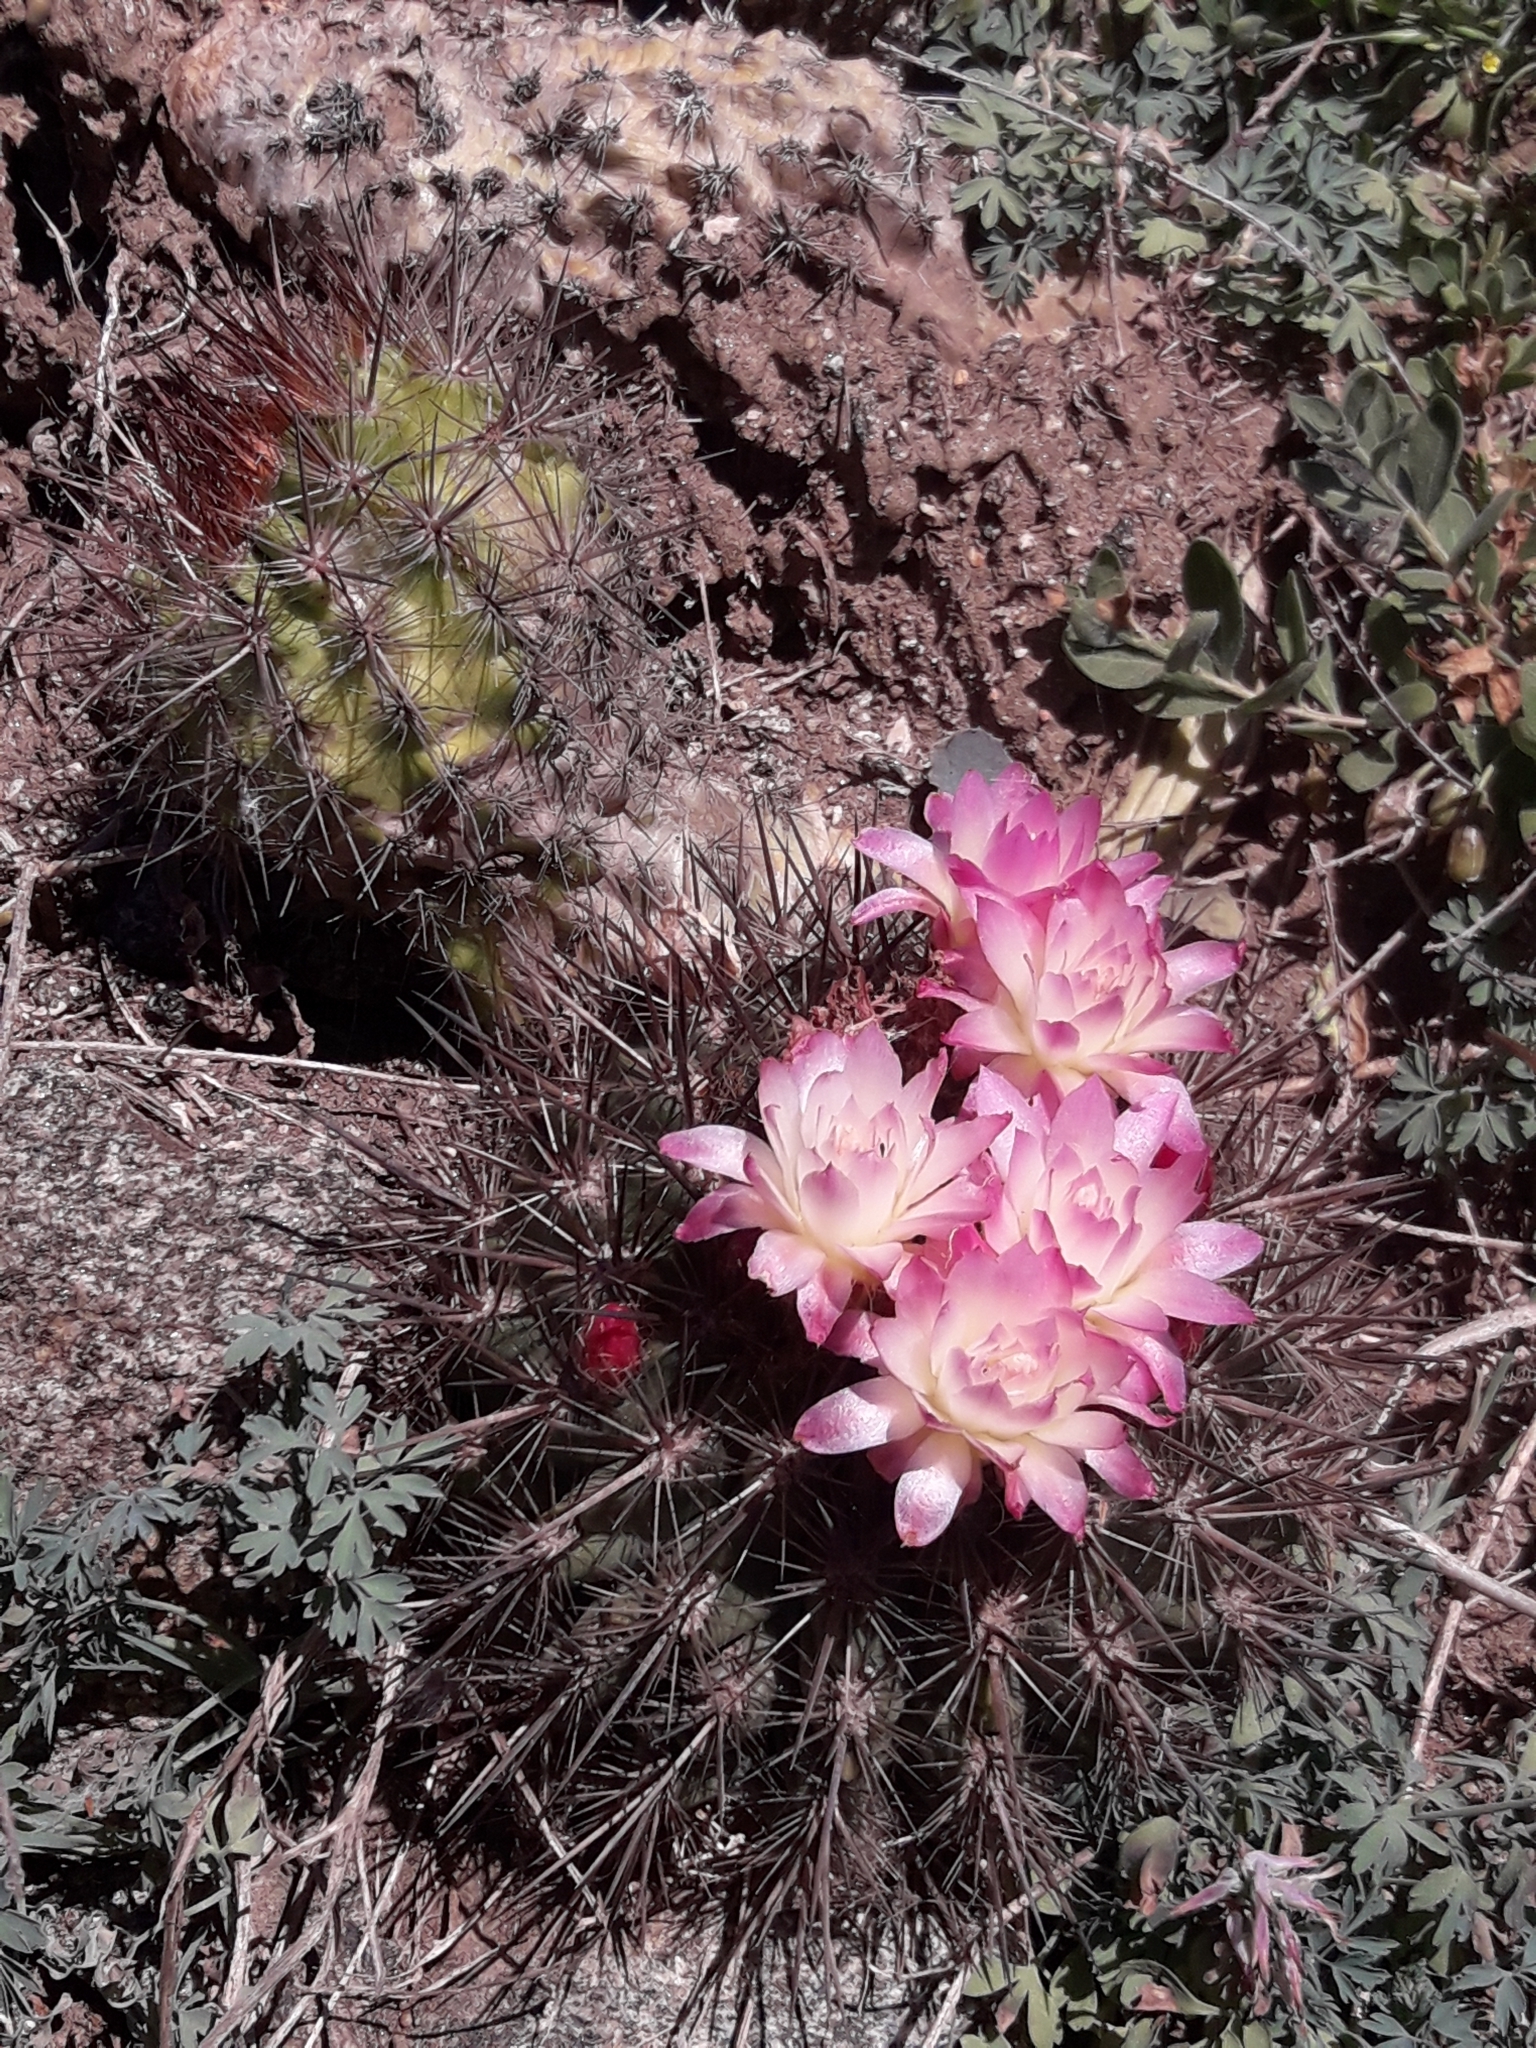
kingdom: Plantae
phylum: Tracheophyta
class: Magnoliopsida
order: Caryophyllales
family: Cactaceae
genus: Eriosyce
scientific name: Eriosyce subgibbosa
